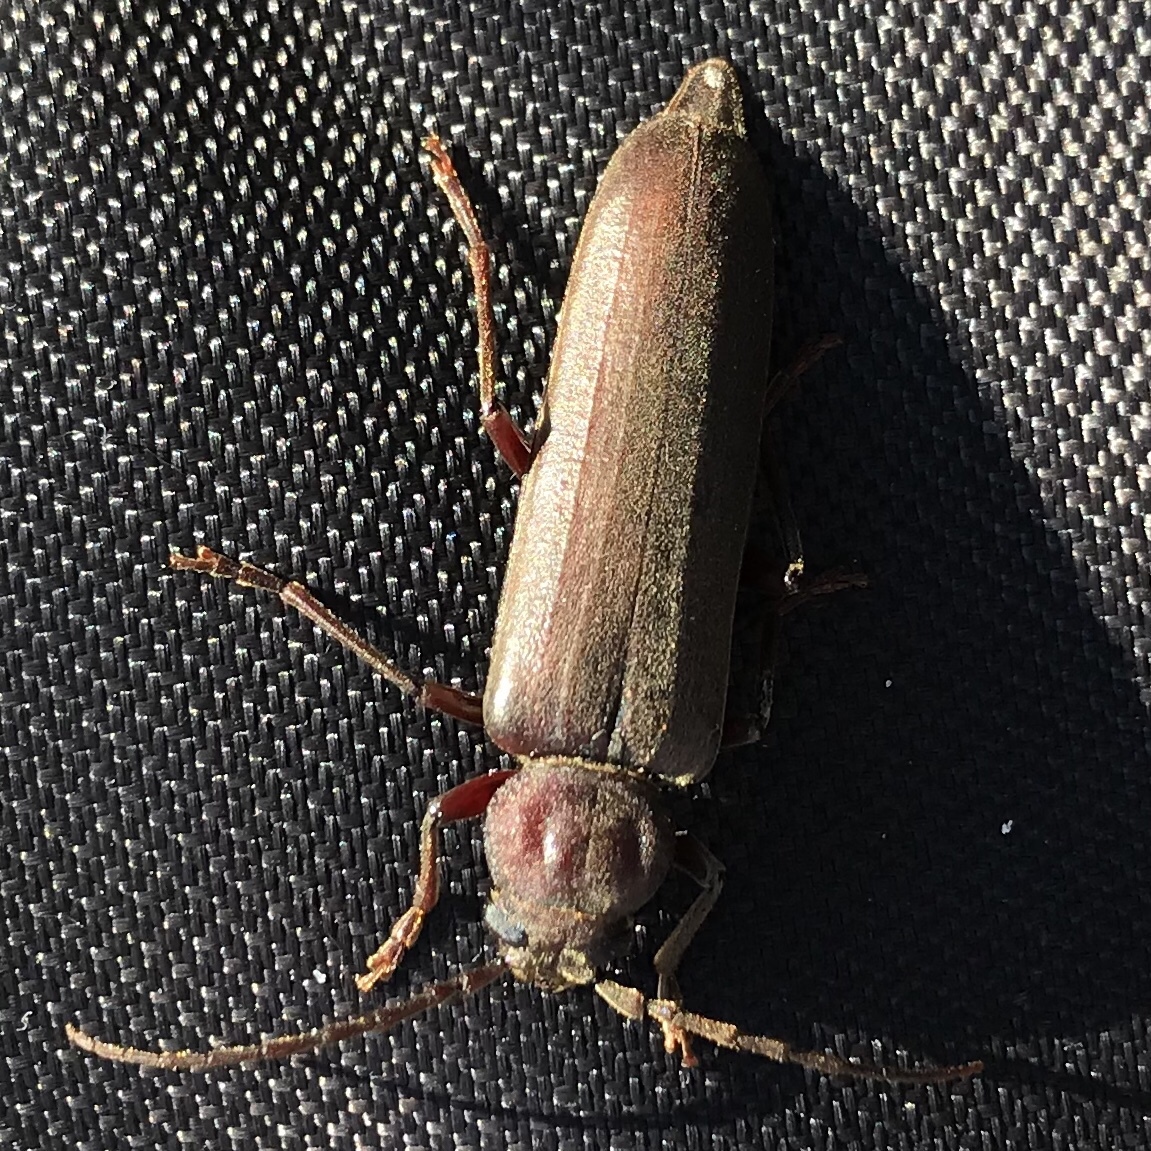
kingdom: Animalia
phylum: Arthropoda
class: Insecta
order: Coleoptera
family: Cerambycidae
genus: Arhopalus
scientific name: Arhopalus rusticus
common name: Rust pine borer
